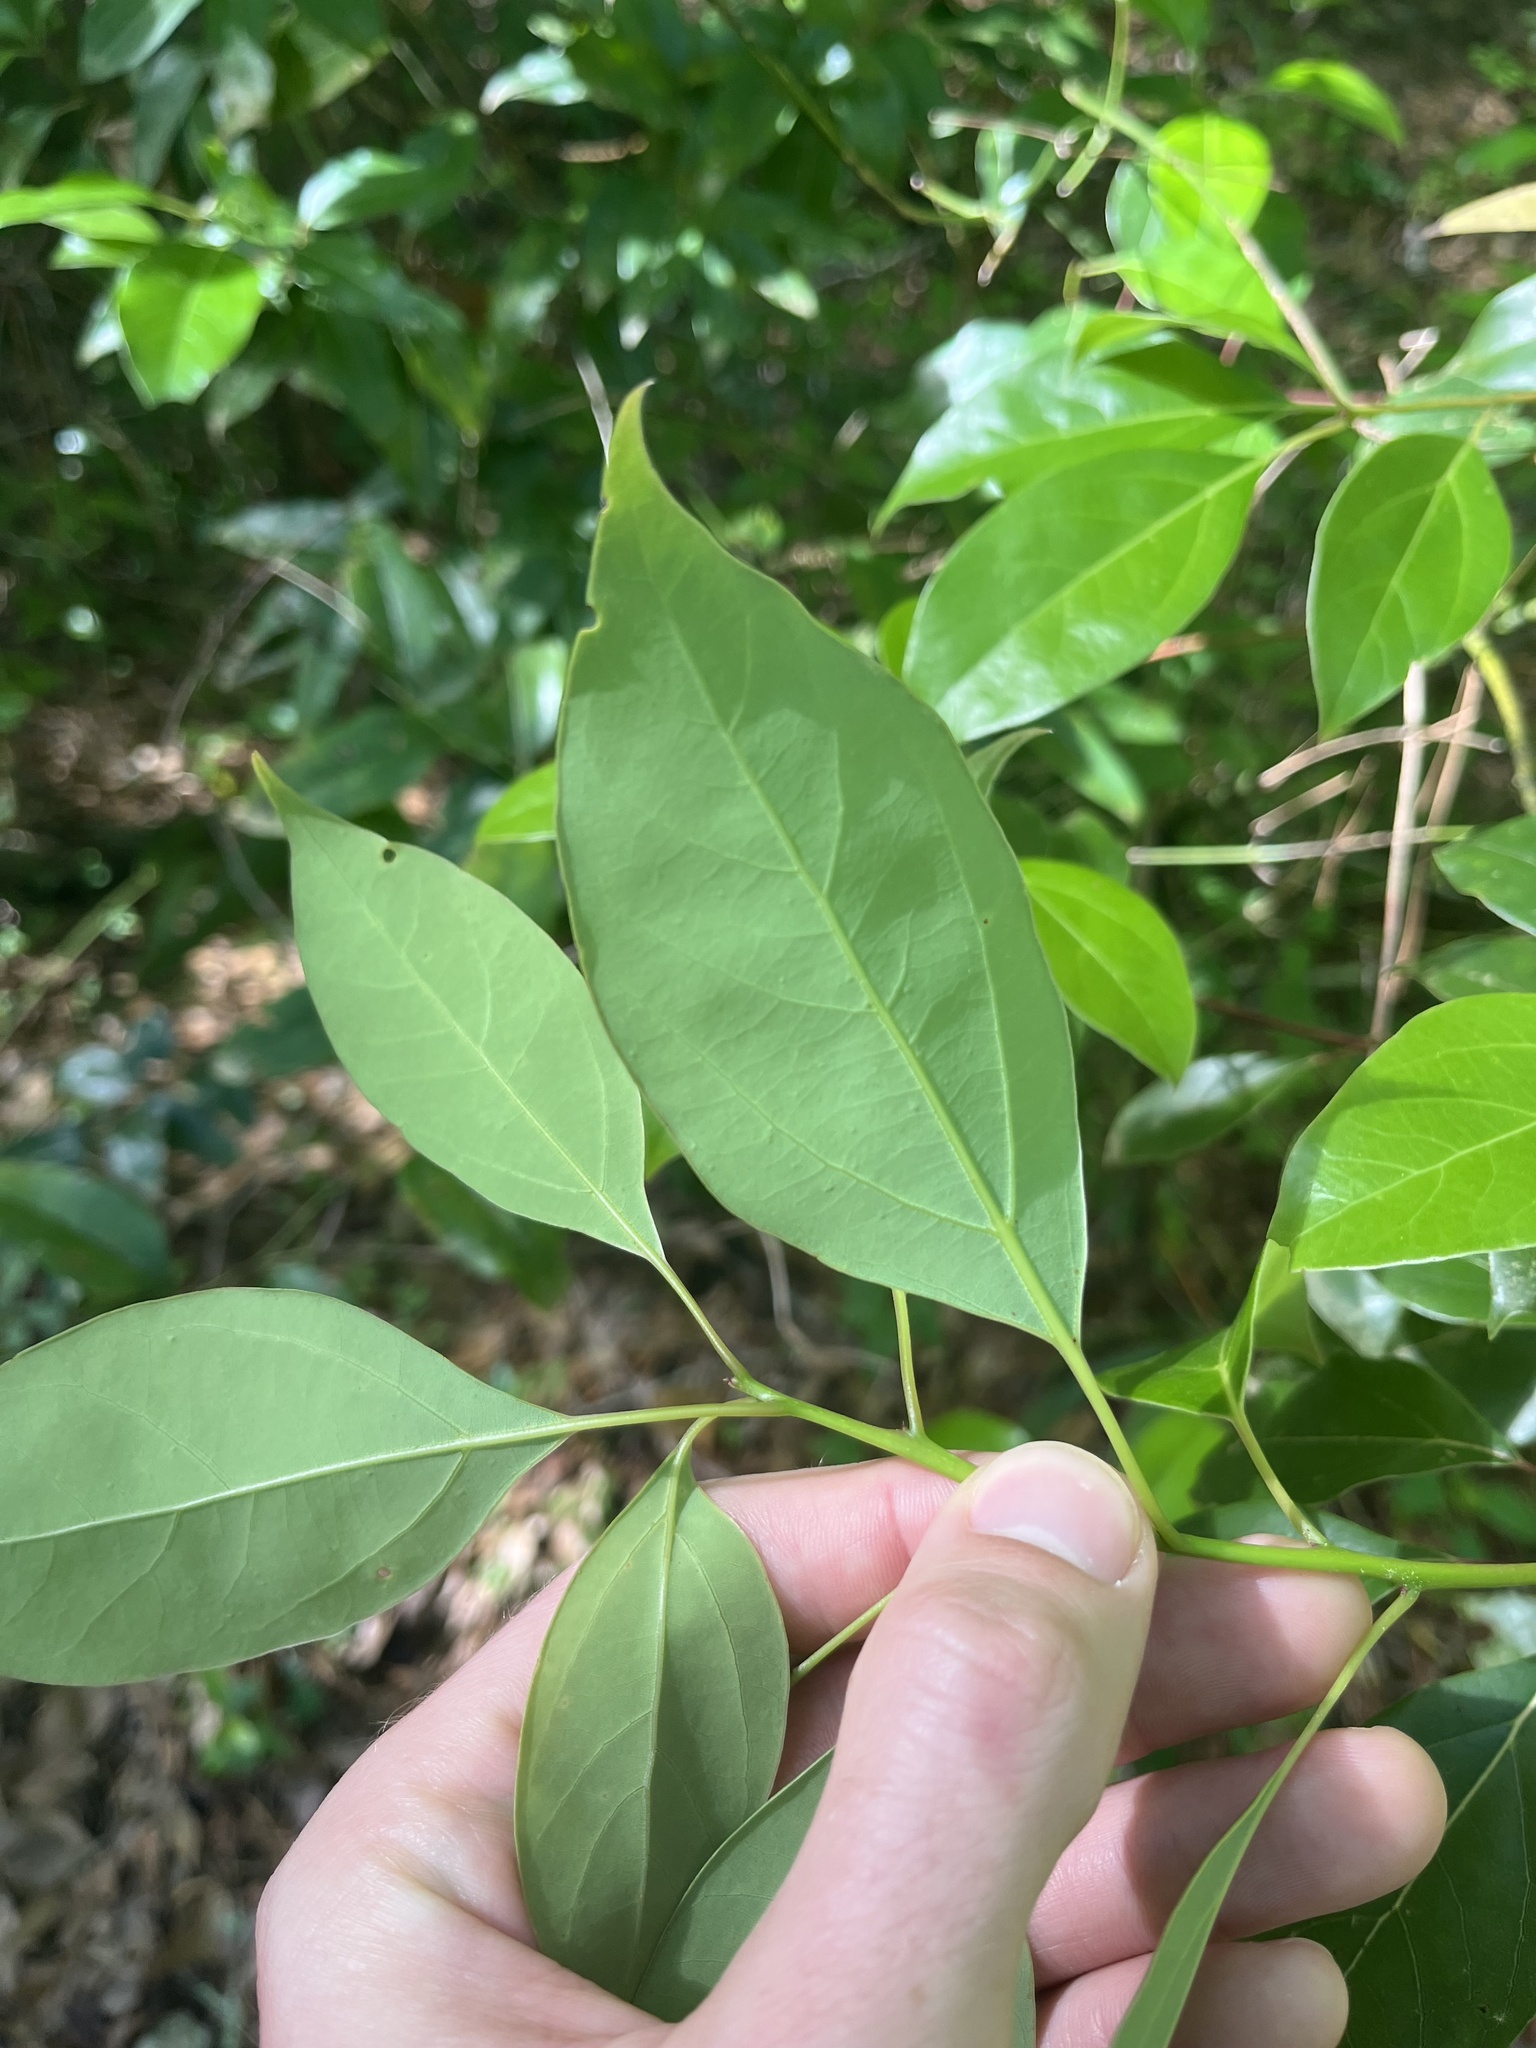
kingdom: Plantae
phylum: Tracheophyta
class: Magnoliopsida
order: Laurales
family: Lauraceae
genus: Cinnamomum
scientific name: Cinnamomum camphora
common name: Camphortree
